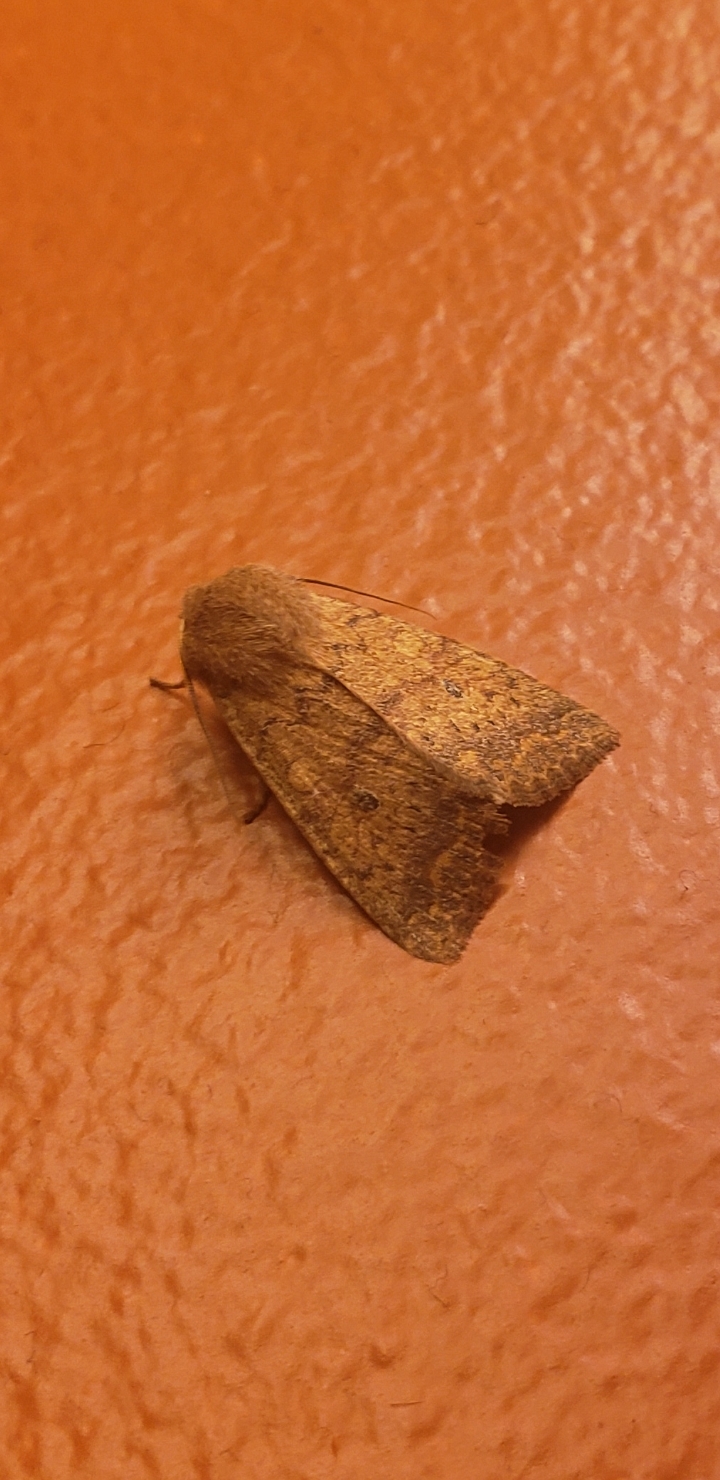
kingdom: Animalia
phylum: Arthropoda
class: Insecta
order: Lepidoptera
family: Noctuidae
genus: Agrochola
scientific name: Agrochola bicolorago
